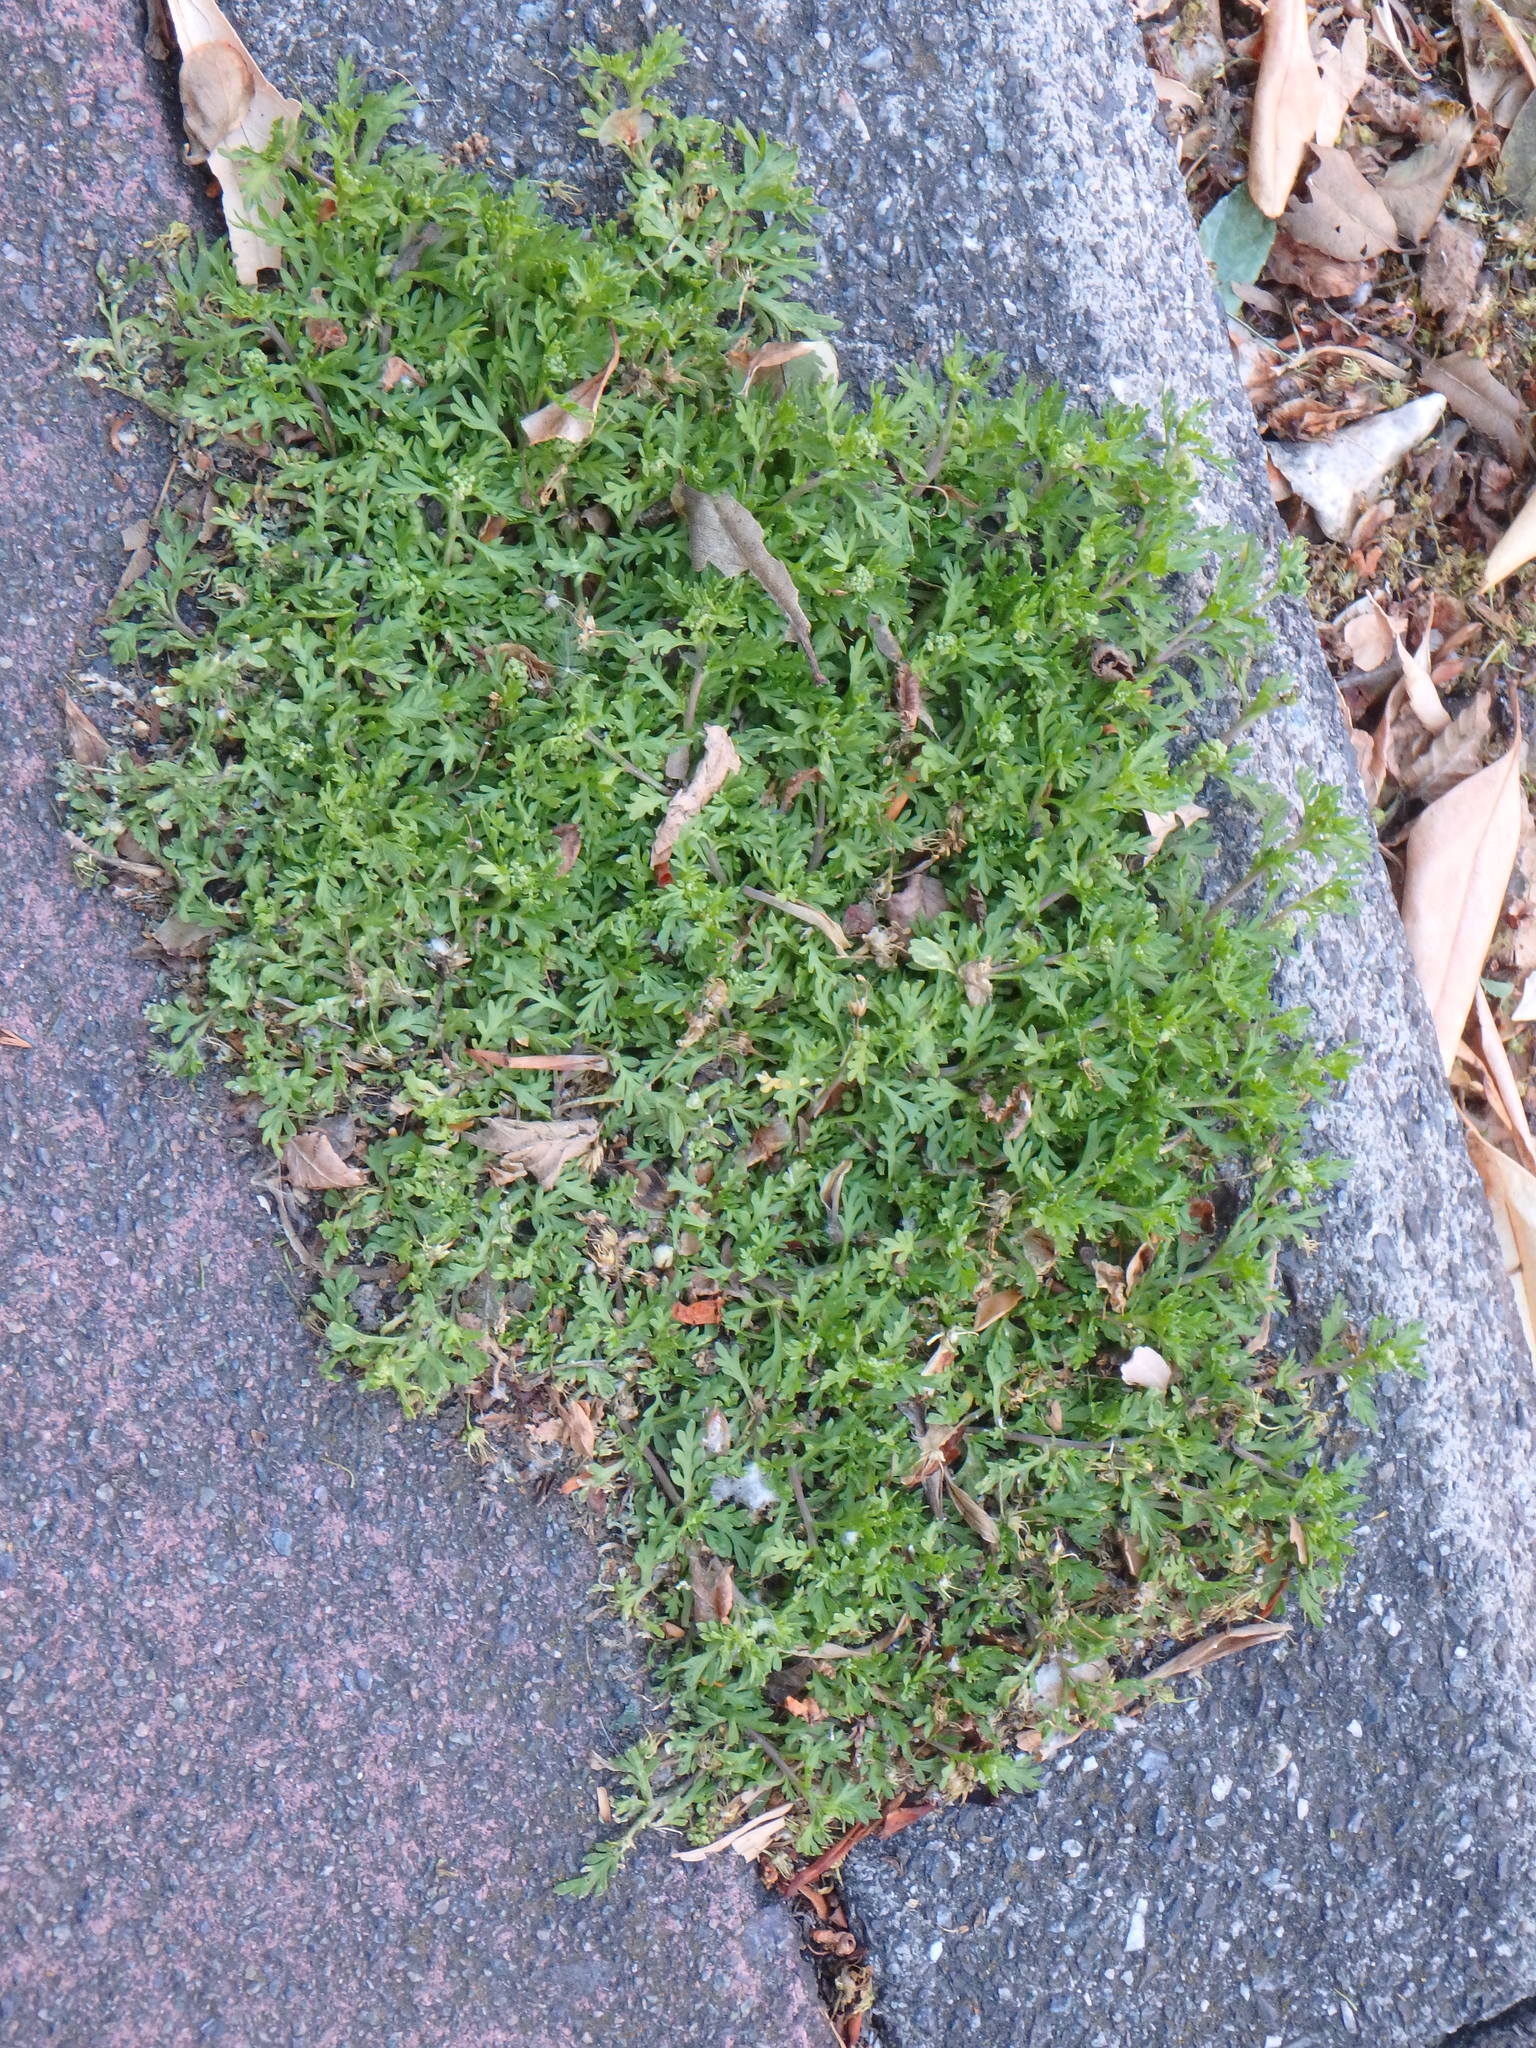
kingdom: Plantae
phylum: Tracheophyta
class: Magnoliopsida
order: Brassicales
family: Brassicaceae
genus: Lepidium
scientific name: Lepidium didymum
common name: Lesser swinecress
